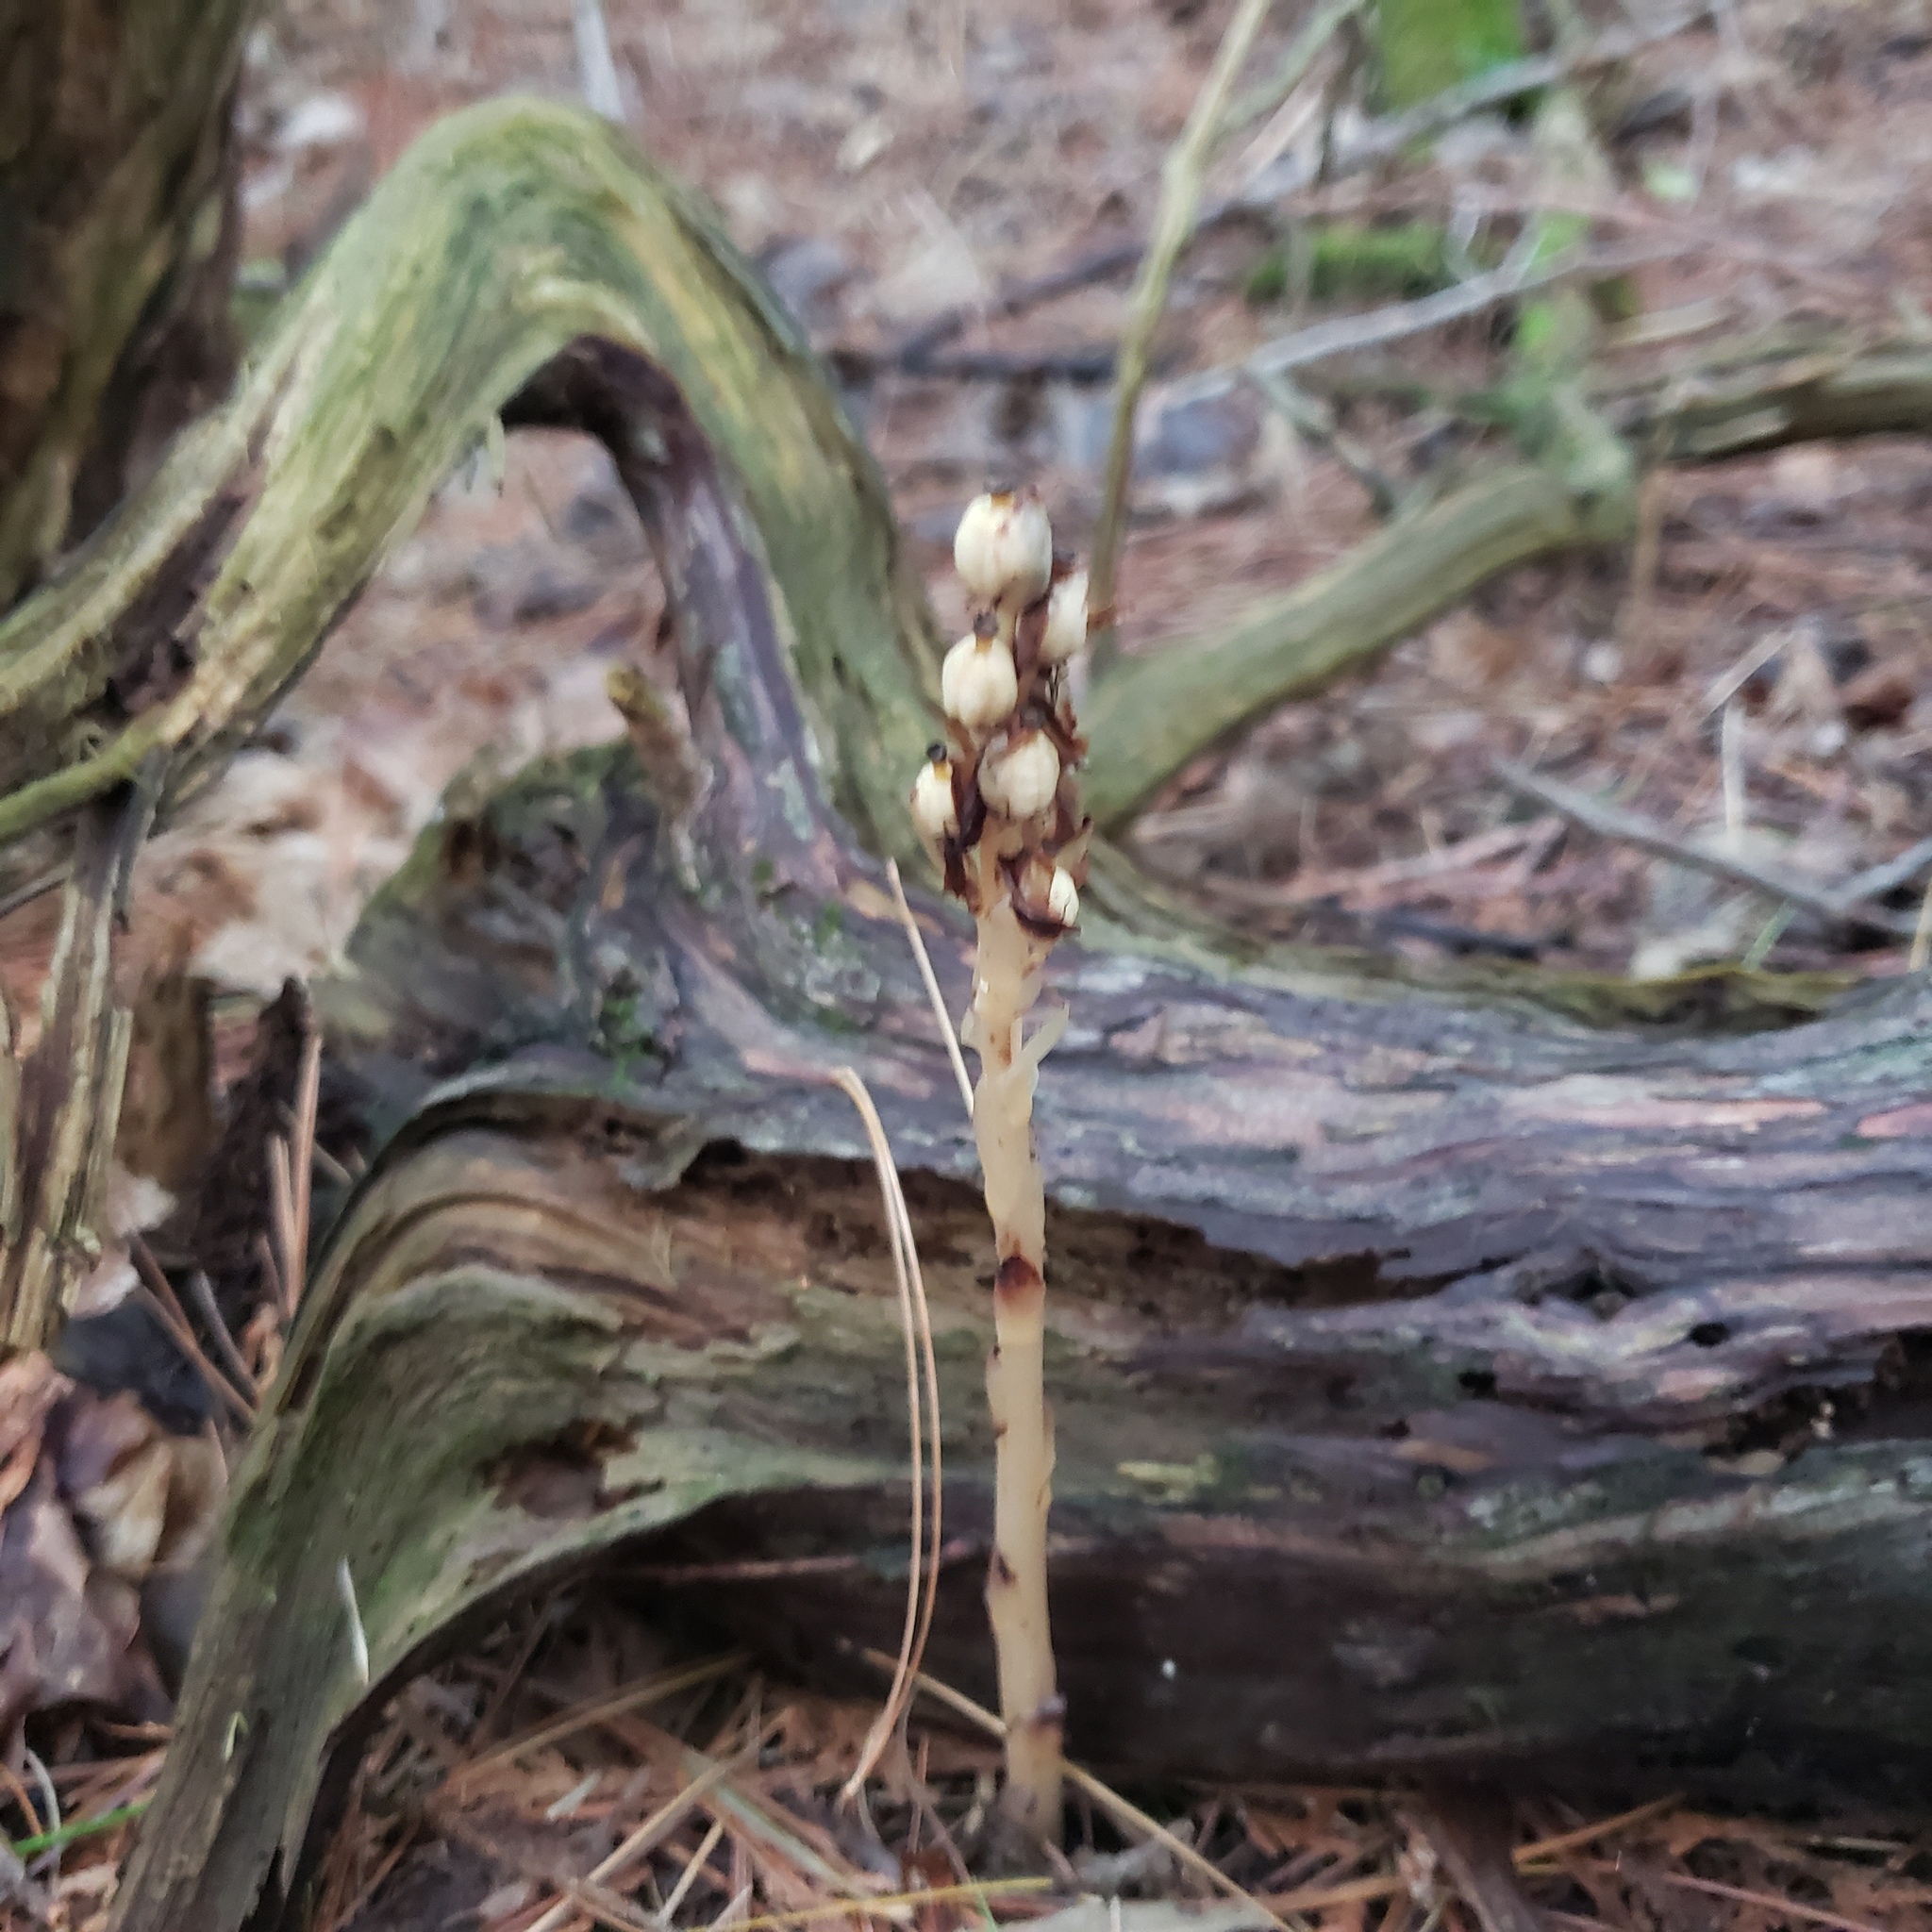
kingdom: Plantae
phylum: Tracheophyta
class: Magnoliopsida
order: Ericales
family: Ericaceae
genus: Hypopitys
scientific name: Hypopitys monotropa
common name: Yellow bird's-nest
